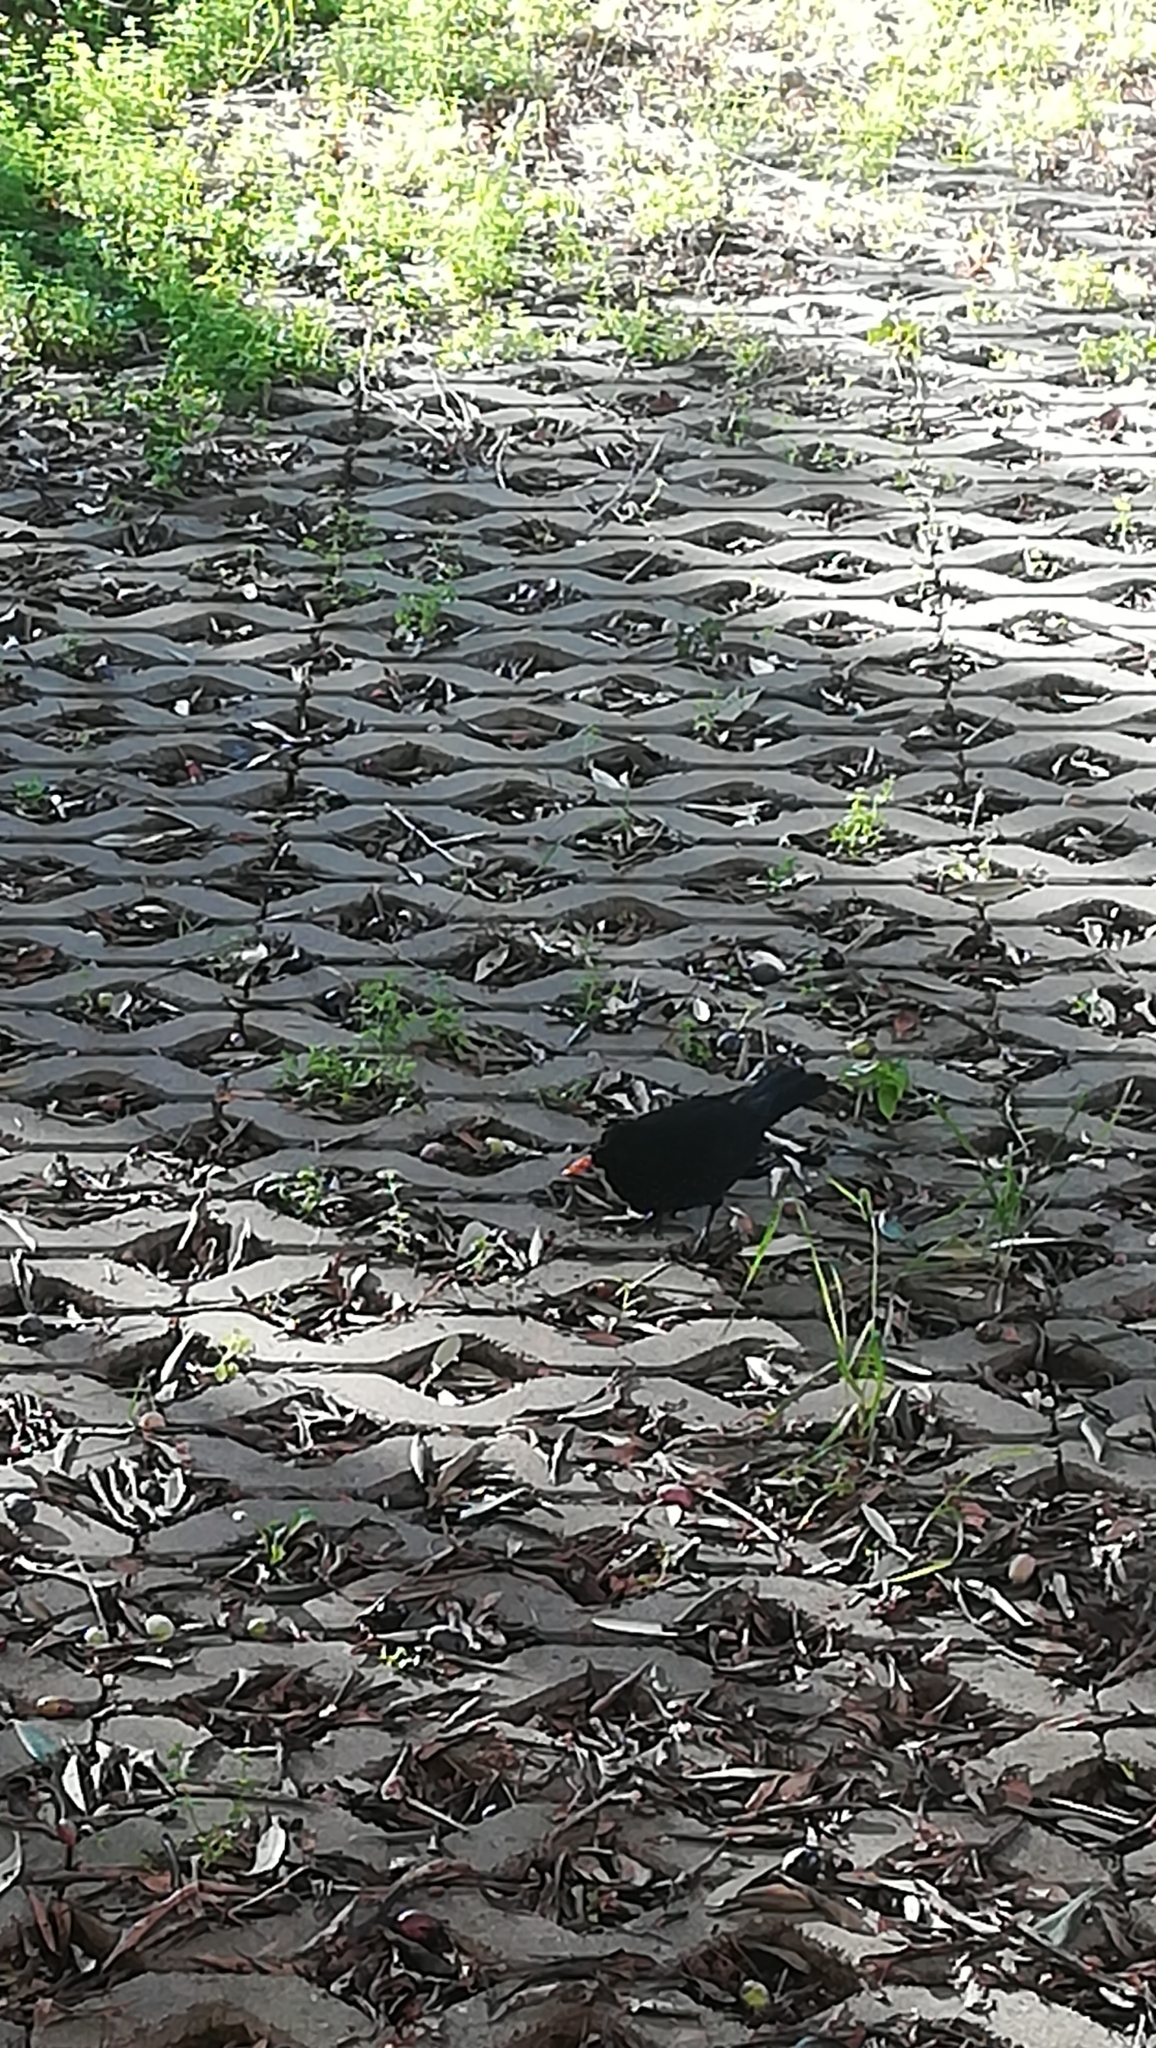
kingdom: Animalia
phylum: Chordata
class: Aves
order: Passeriformes
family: Turdidae
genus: Turdus
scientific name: Turdus merula
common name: Common blackbird
